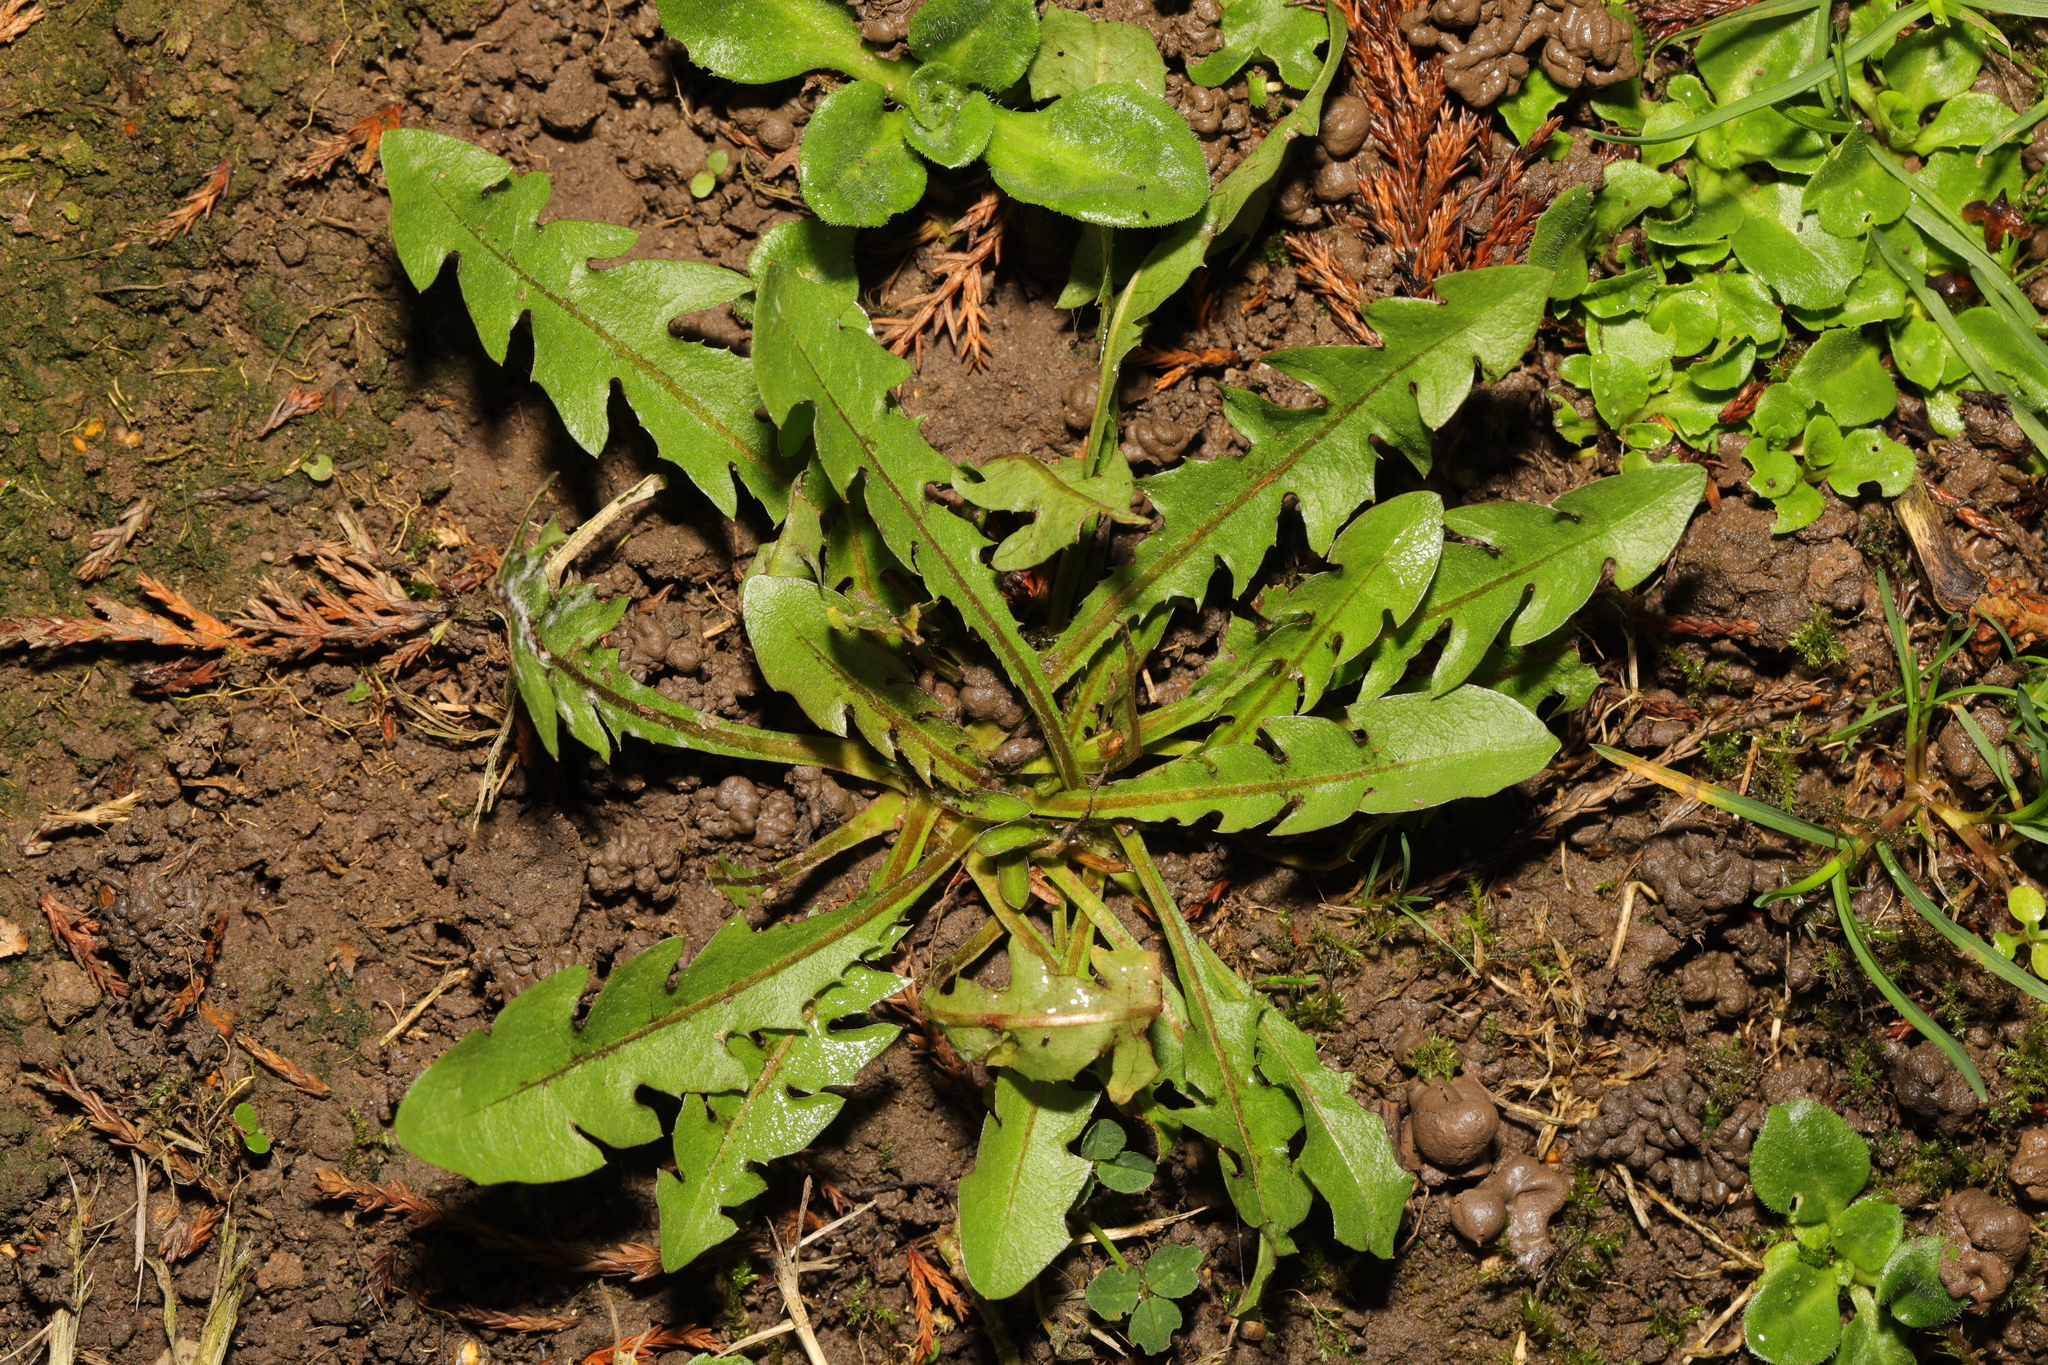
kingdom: Plantae
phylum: Tracheophyta
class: Magnoliopsida
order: Asterales
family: Asteraceae
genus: Taraxacum
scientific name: Taraxacum officinale
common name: Common dandelion
